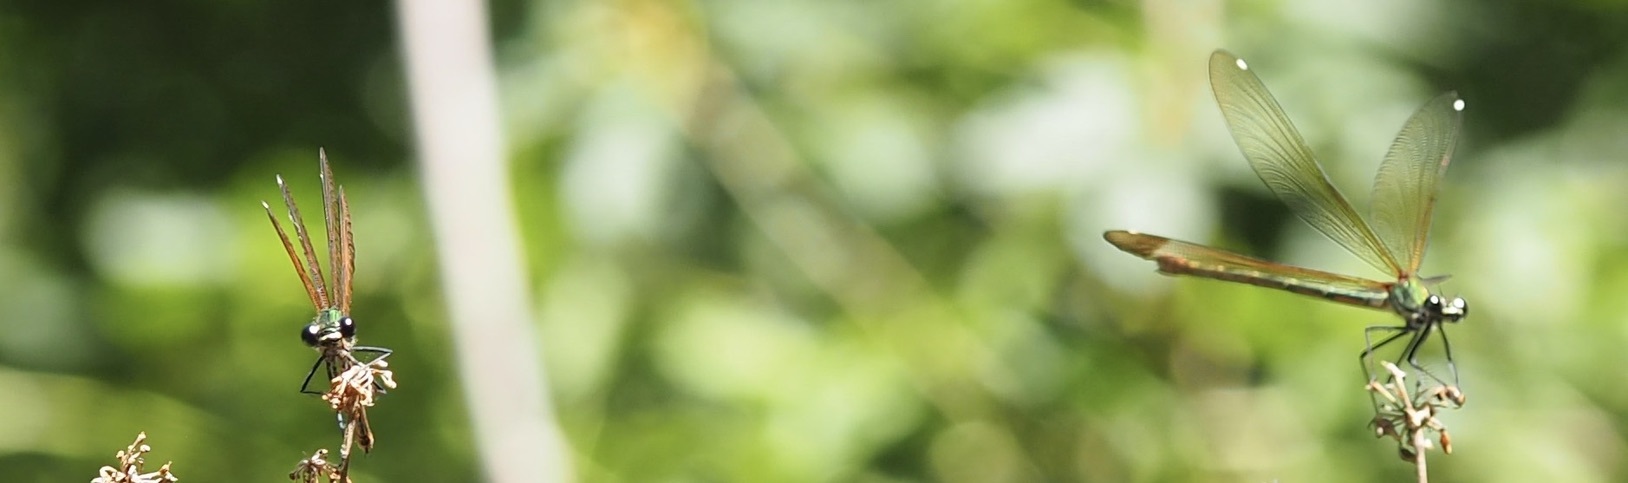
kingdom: Animalia
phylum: Arthropoda
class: Insecta
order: Odonata
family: Calopterygidae
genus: Calopteryx
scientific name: Calopteryx haemorrhoidalis
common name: Copper demoiselle
